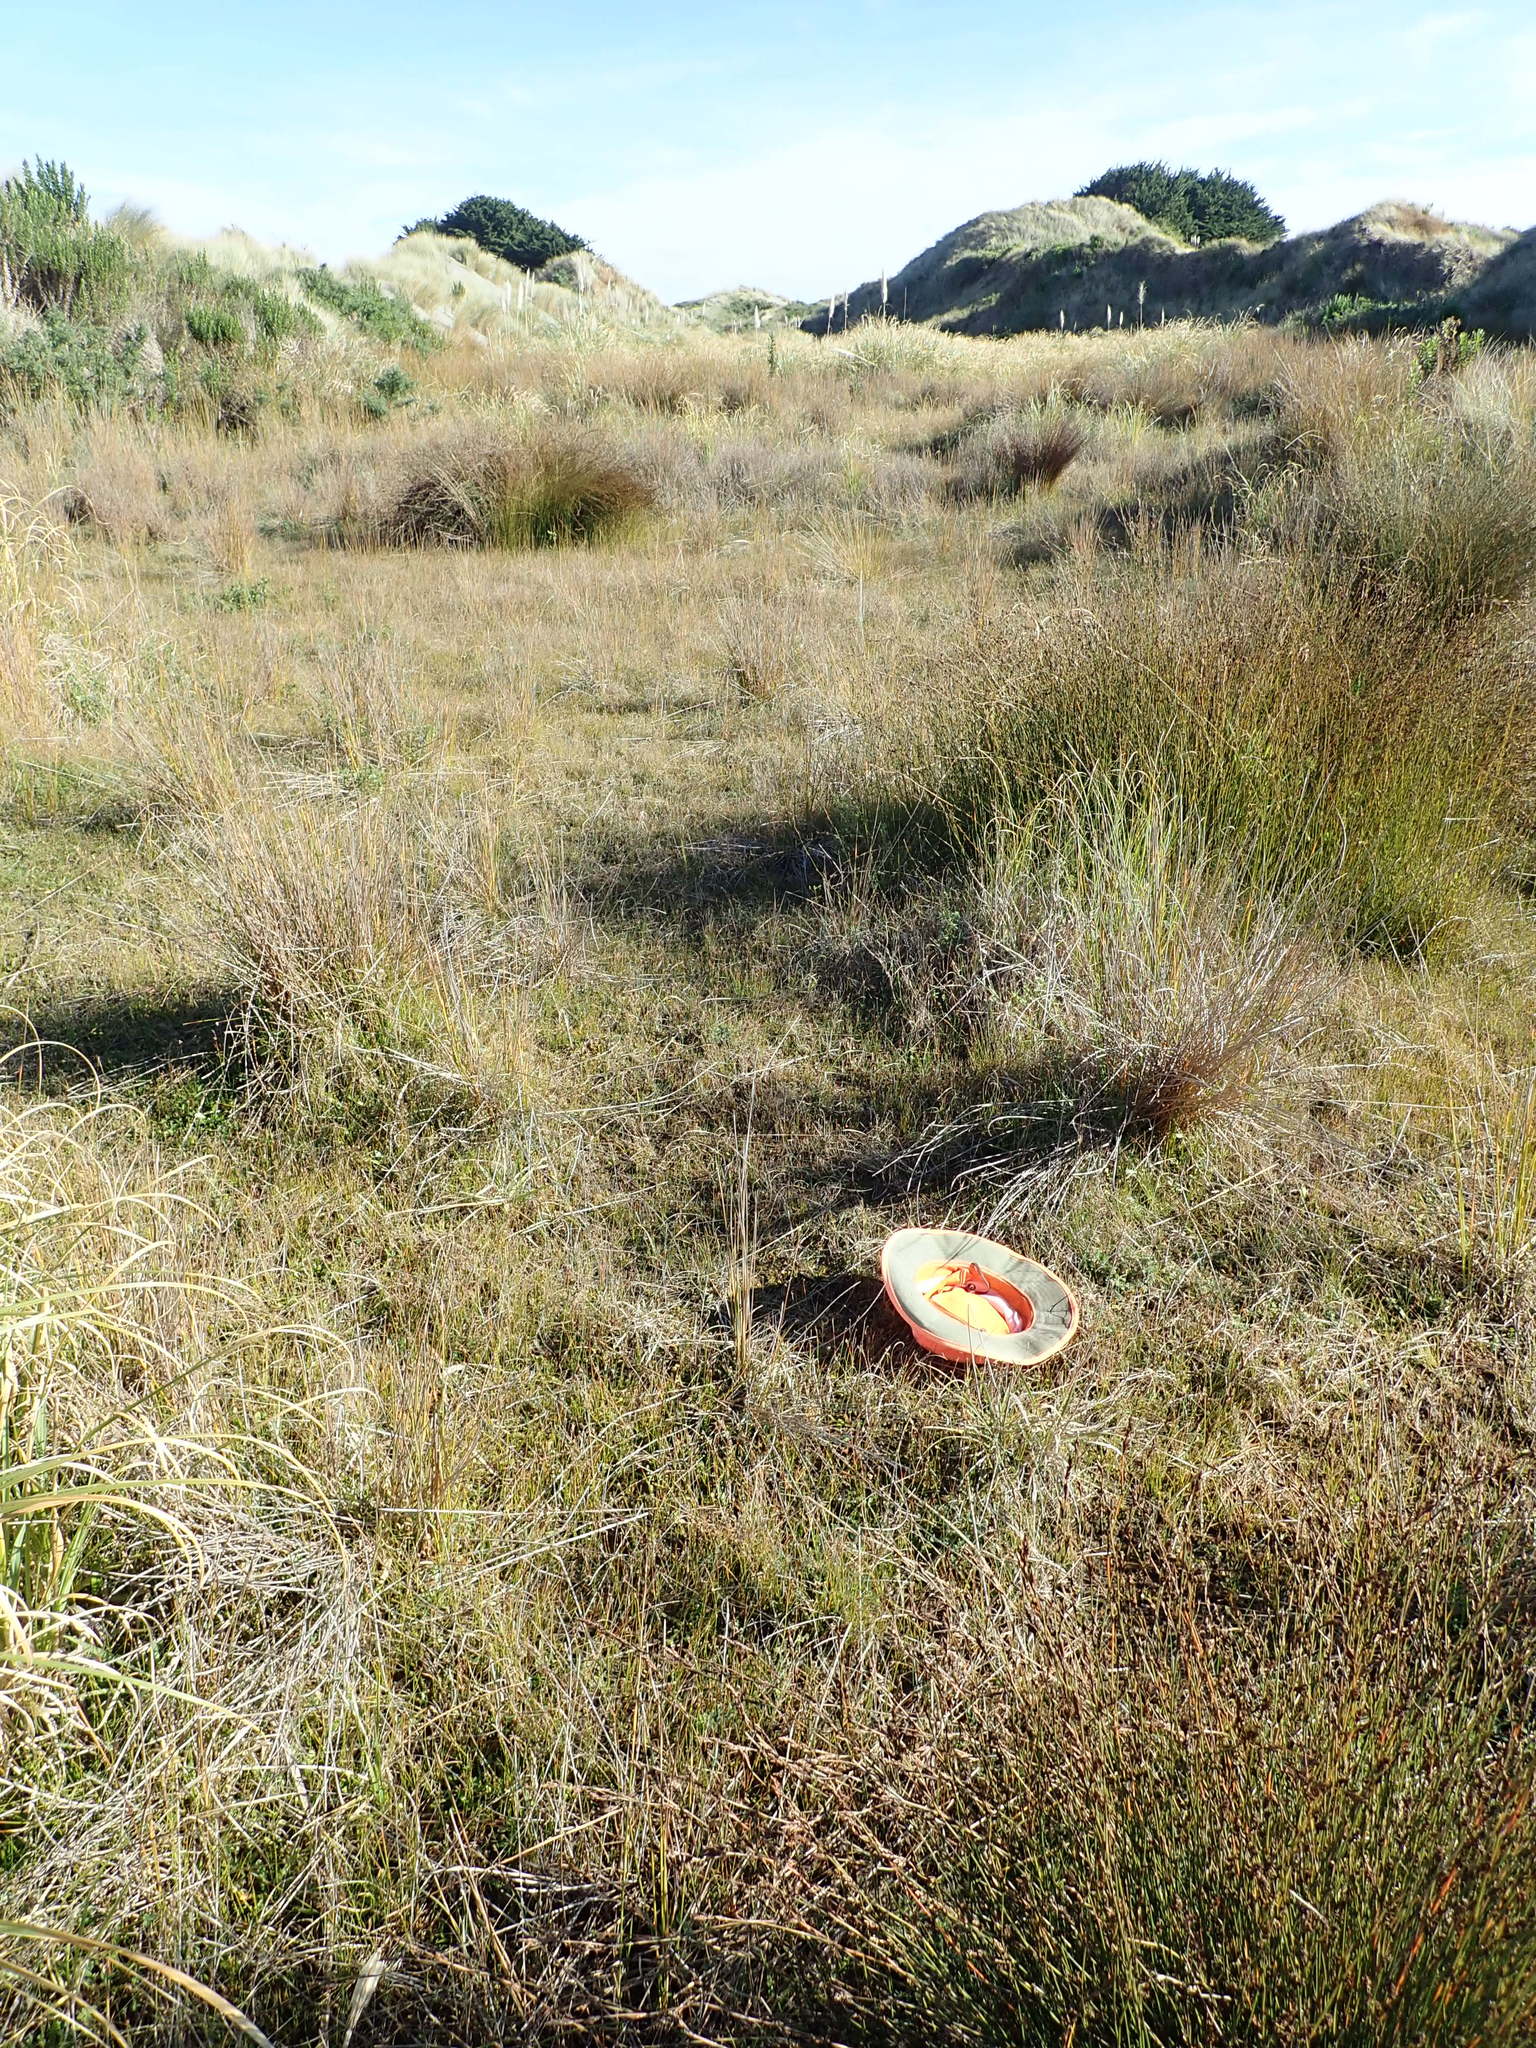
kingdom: Plantae
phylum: Tracheophyta
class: Magnoliopsida
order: Asterales
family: Campanulaceae
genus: Lobelia
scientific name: Lobelia anceps
